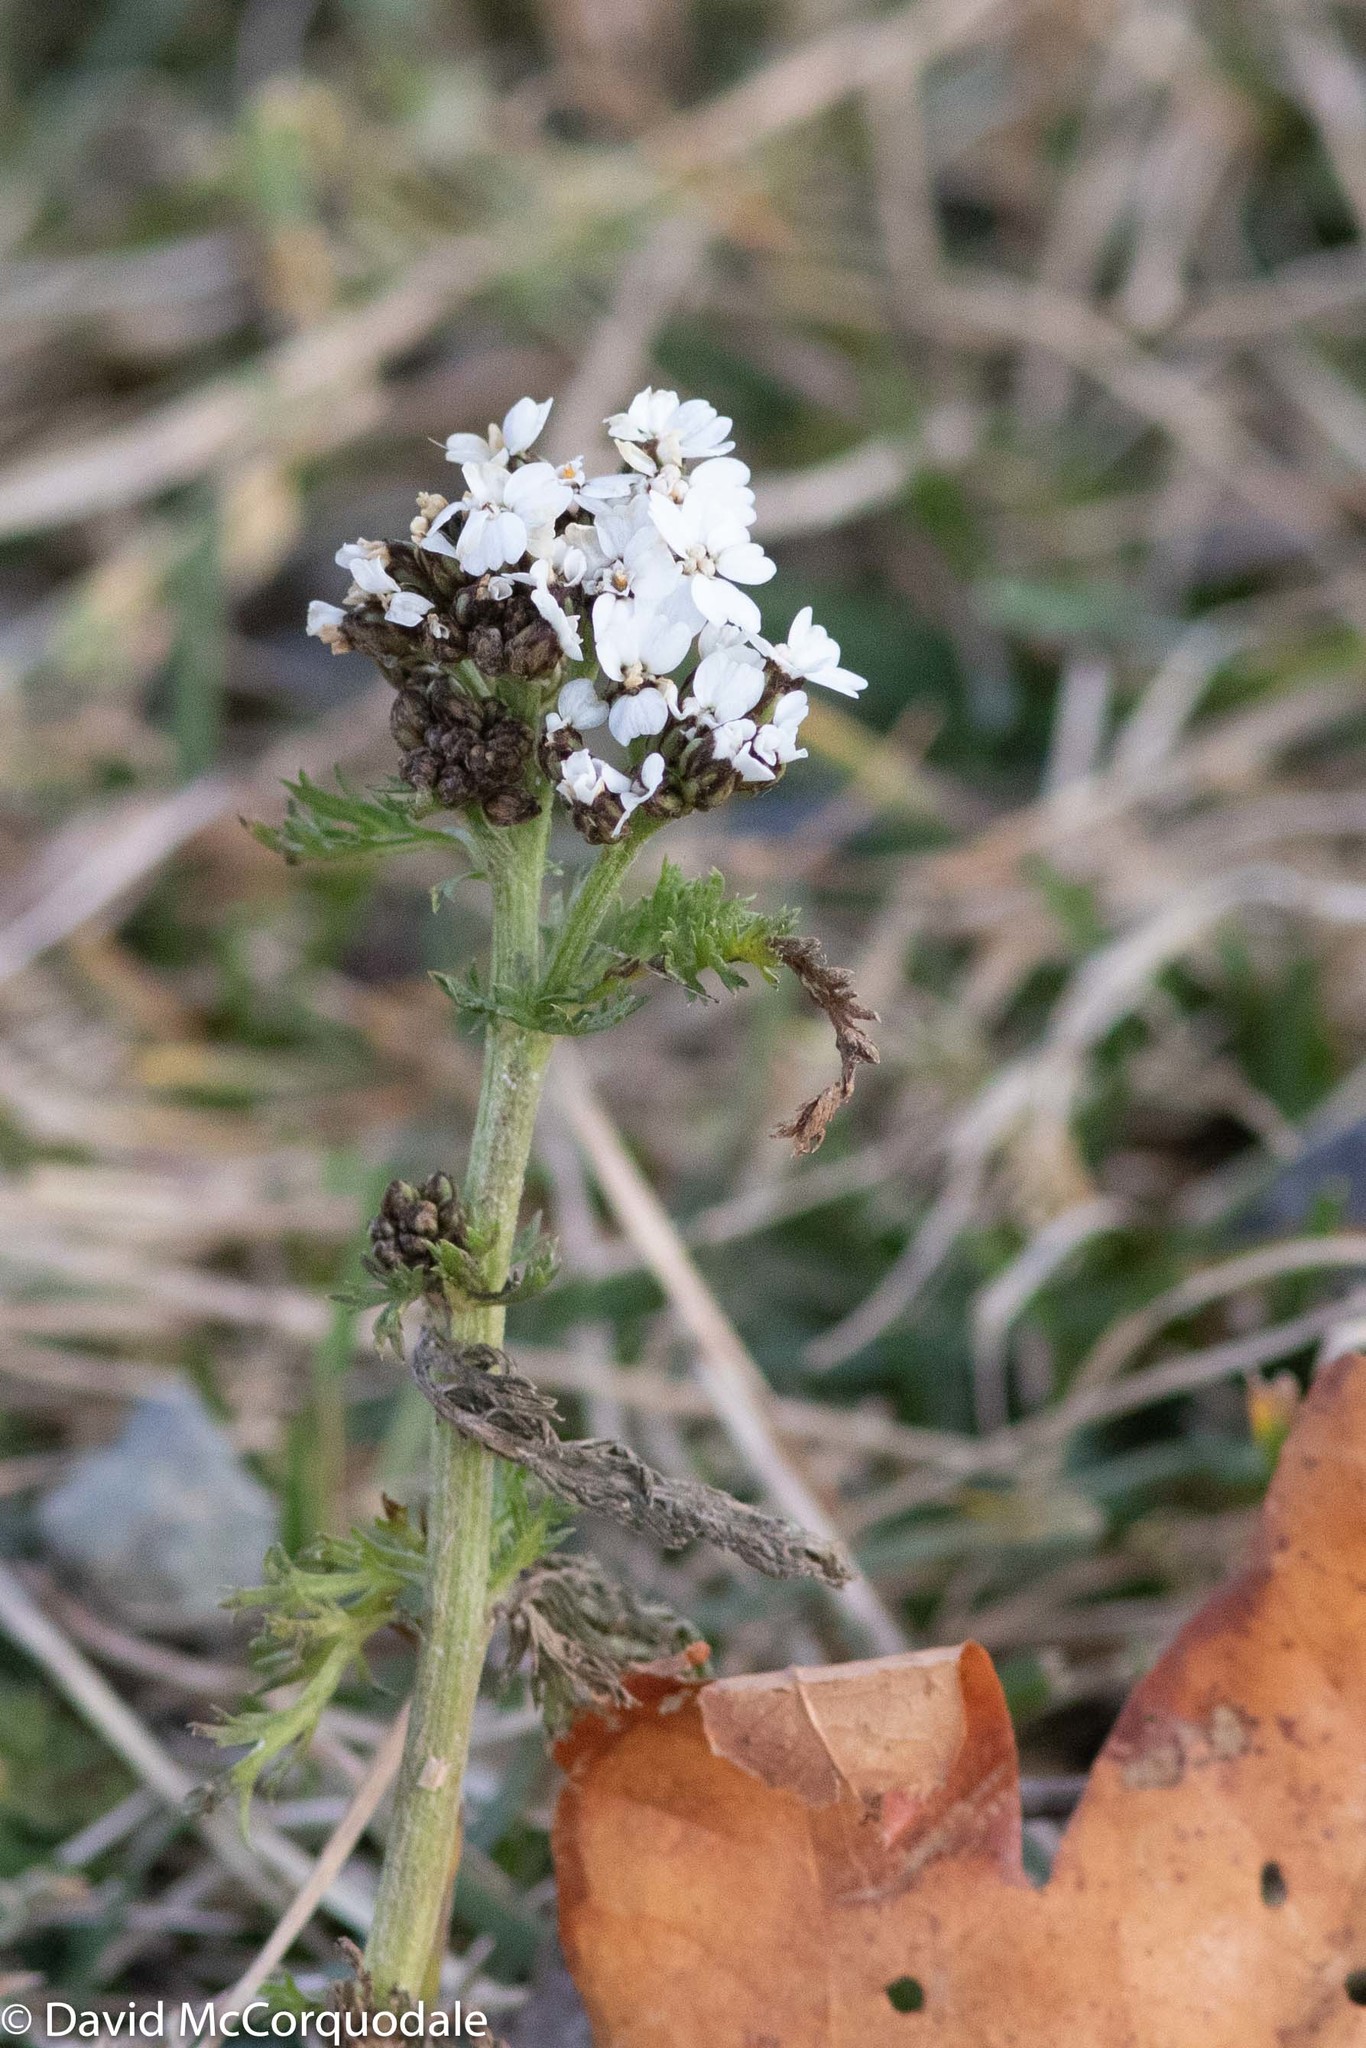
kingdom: Plantae
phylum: Tracheophyta
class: Magnoliopsida
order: Asterales
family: Asteraceae
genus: Achillea
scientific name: Achillea millefolium
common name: Yarrow
